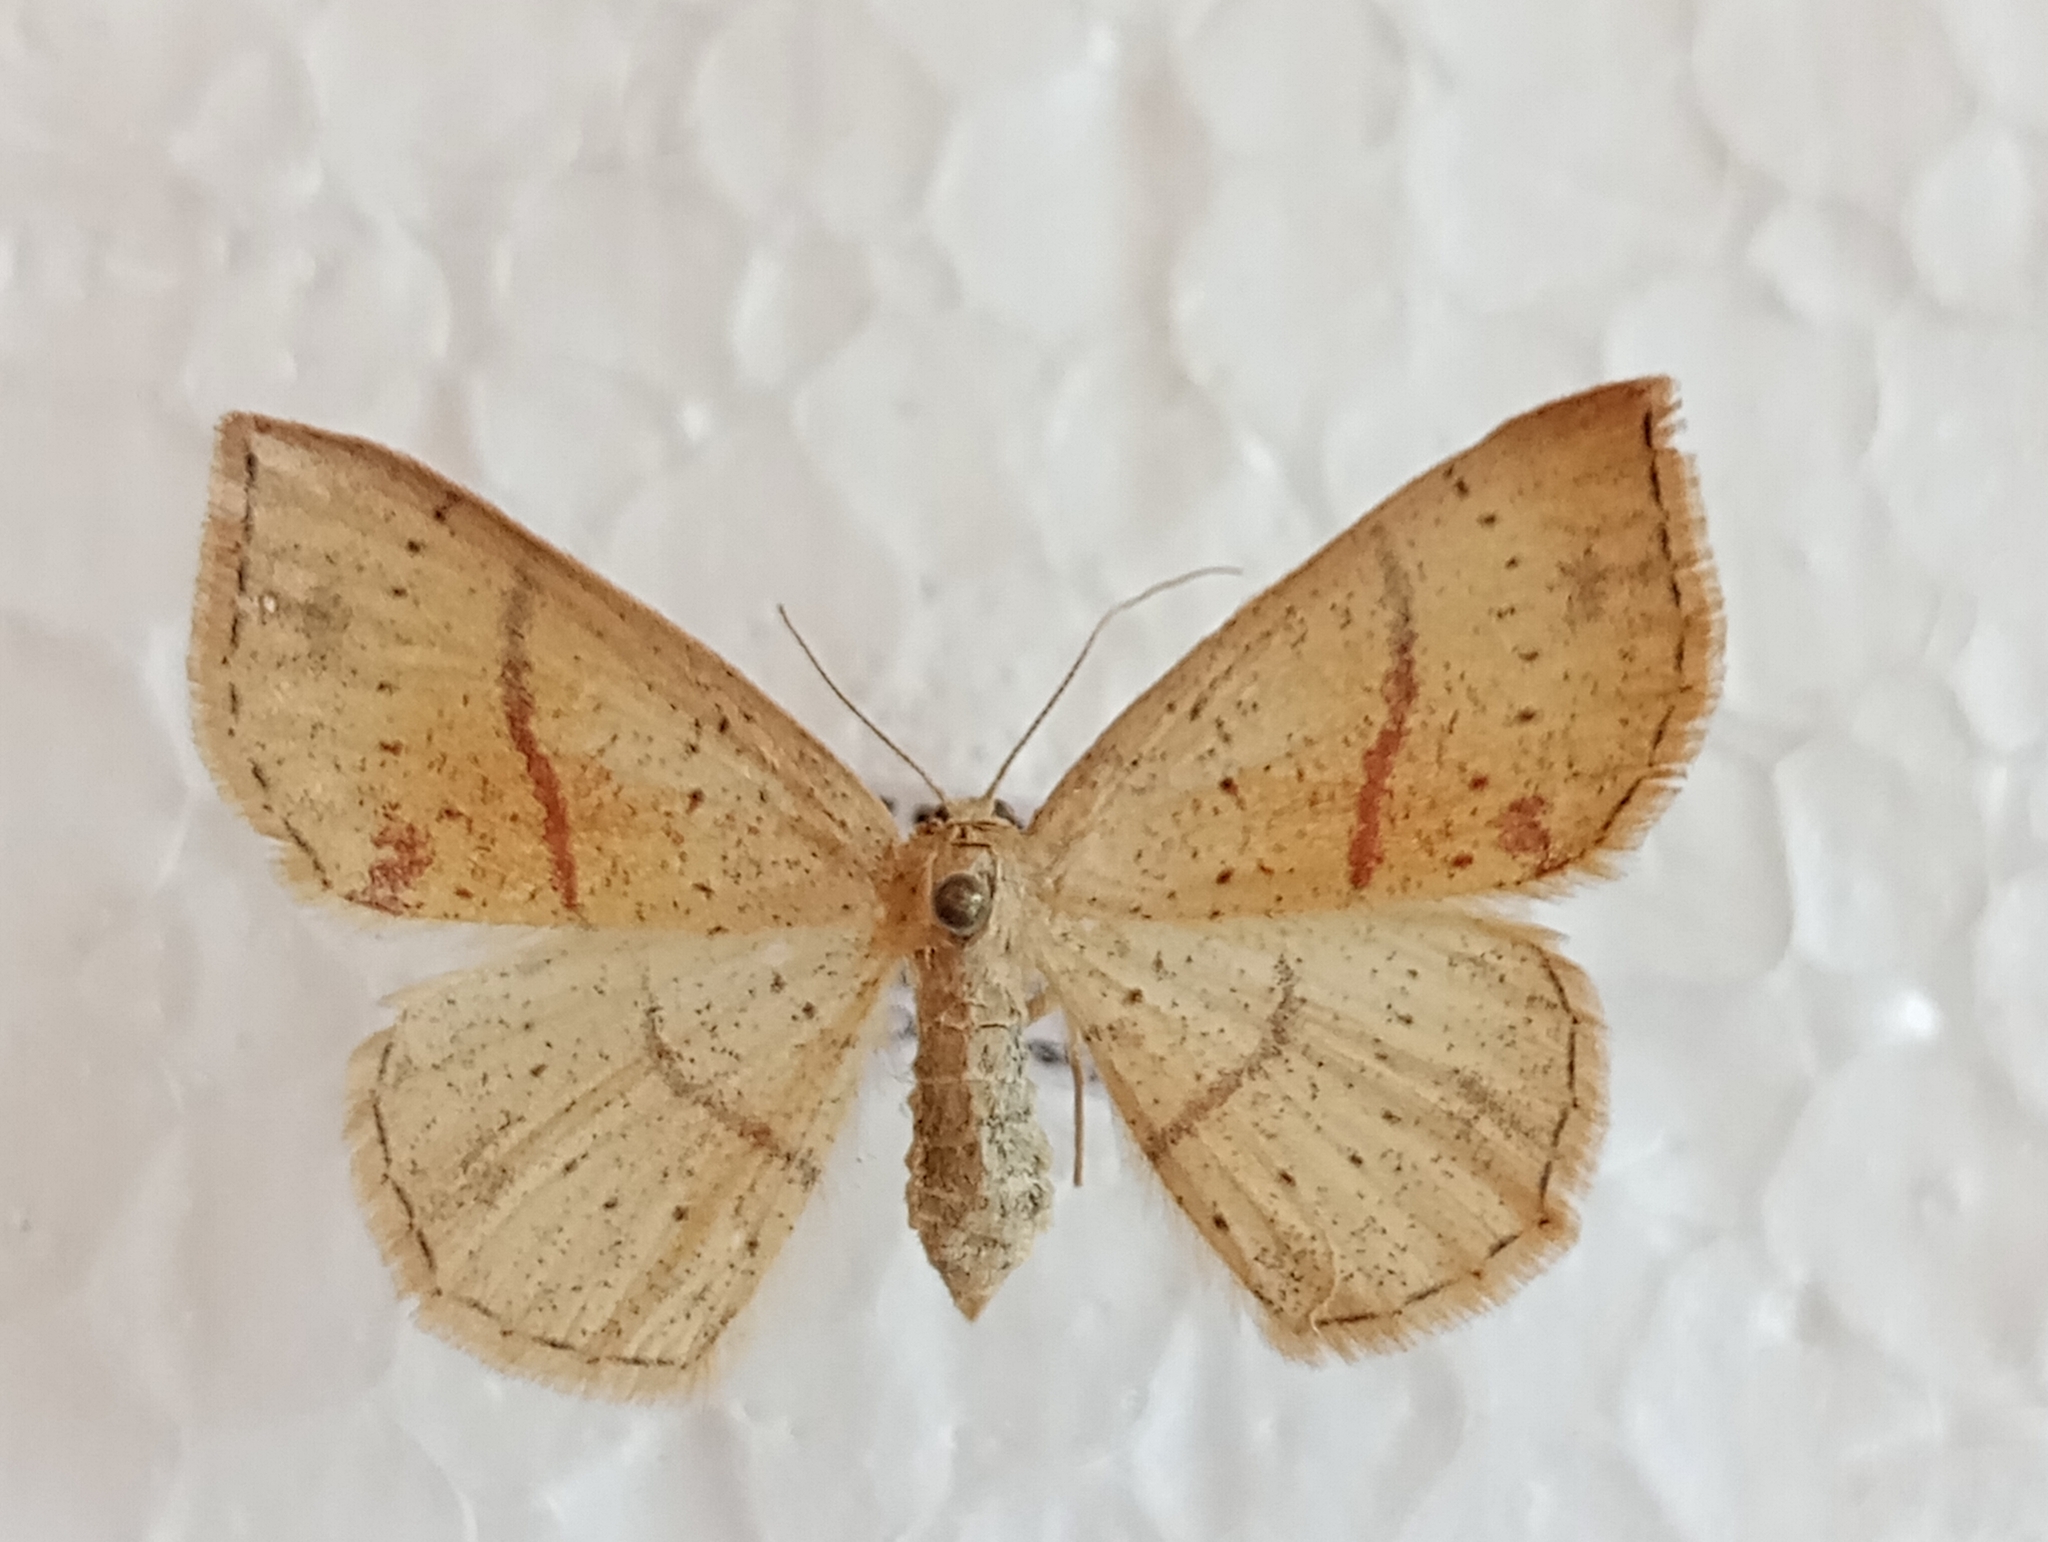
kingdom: Animalia
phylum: Arthropoda
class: Insecta
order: Lepidoptera
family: Geometridae
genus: Cyclophora
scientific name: Cyclophora punctaria
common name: Maiden's blush
